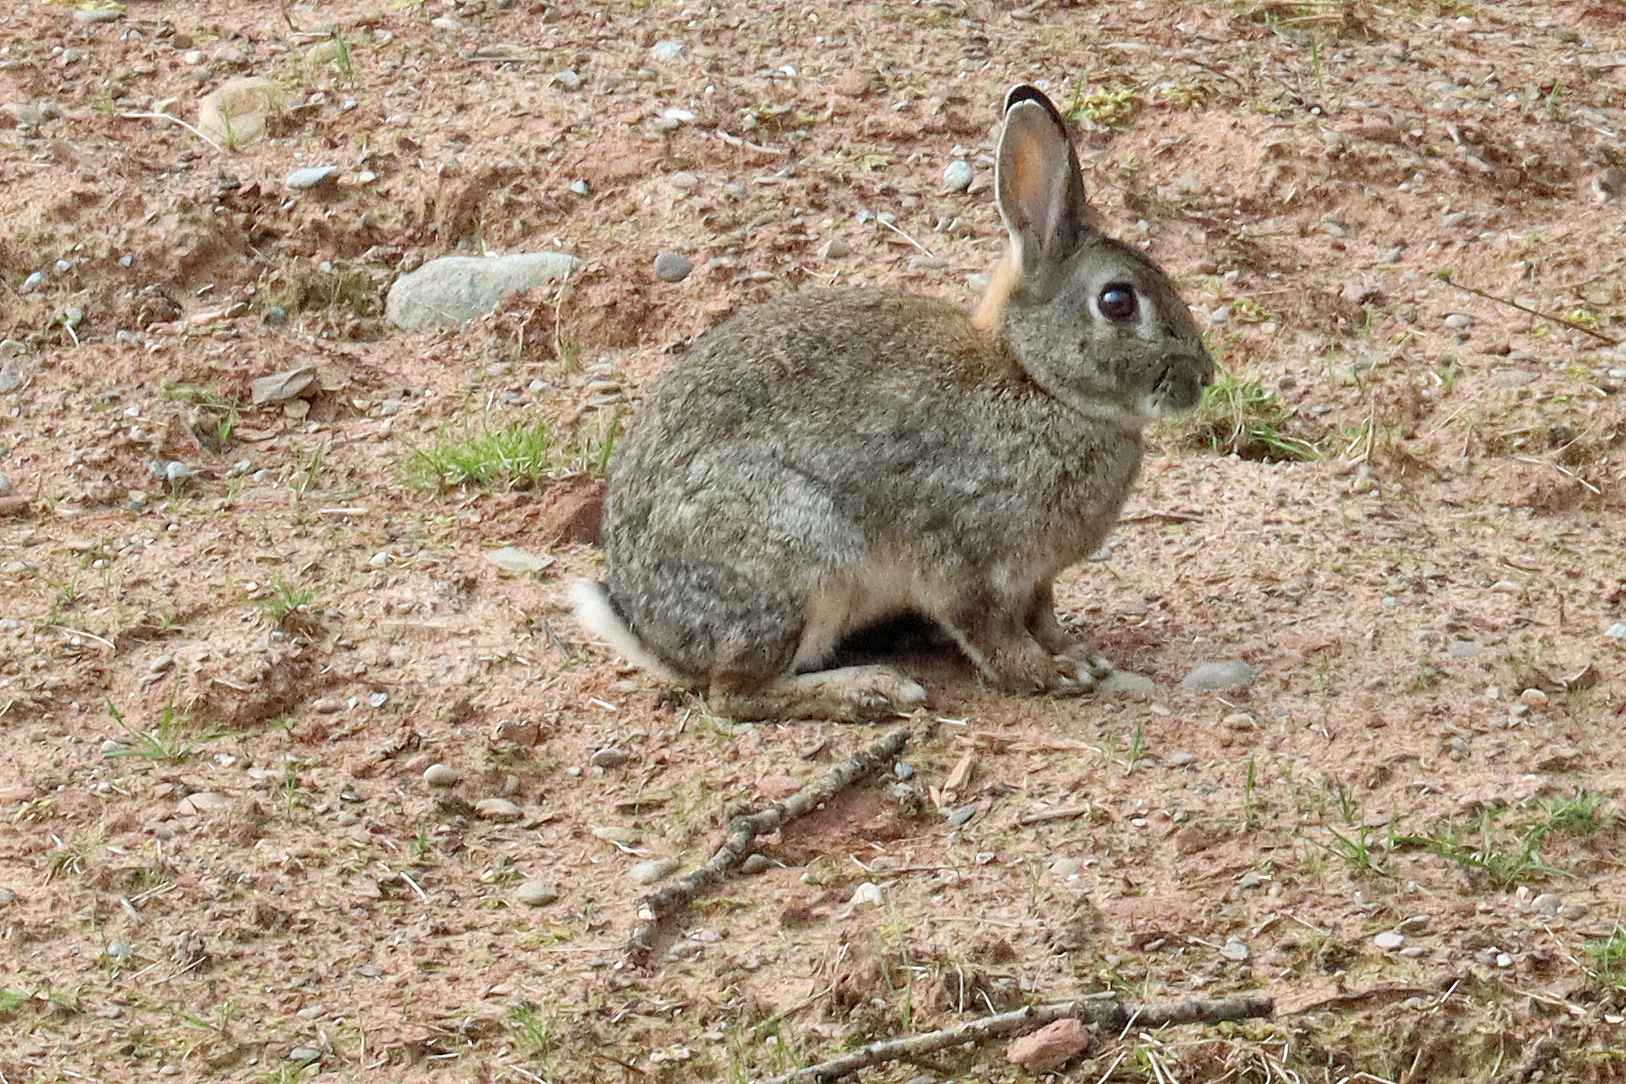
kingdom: Animalia
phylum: Chordata
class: Mammalia
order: Lagomorpha
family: Leporidae
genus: Oryctolagus
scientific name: Oryctolagus cuniculus
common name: European rabbit
